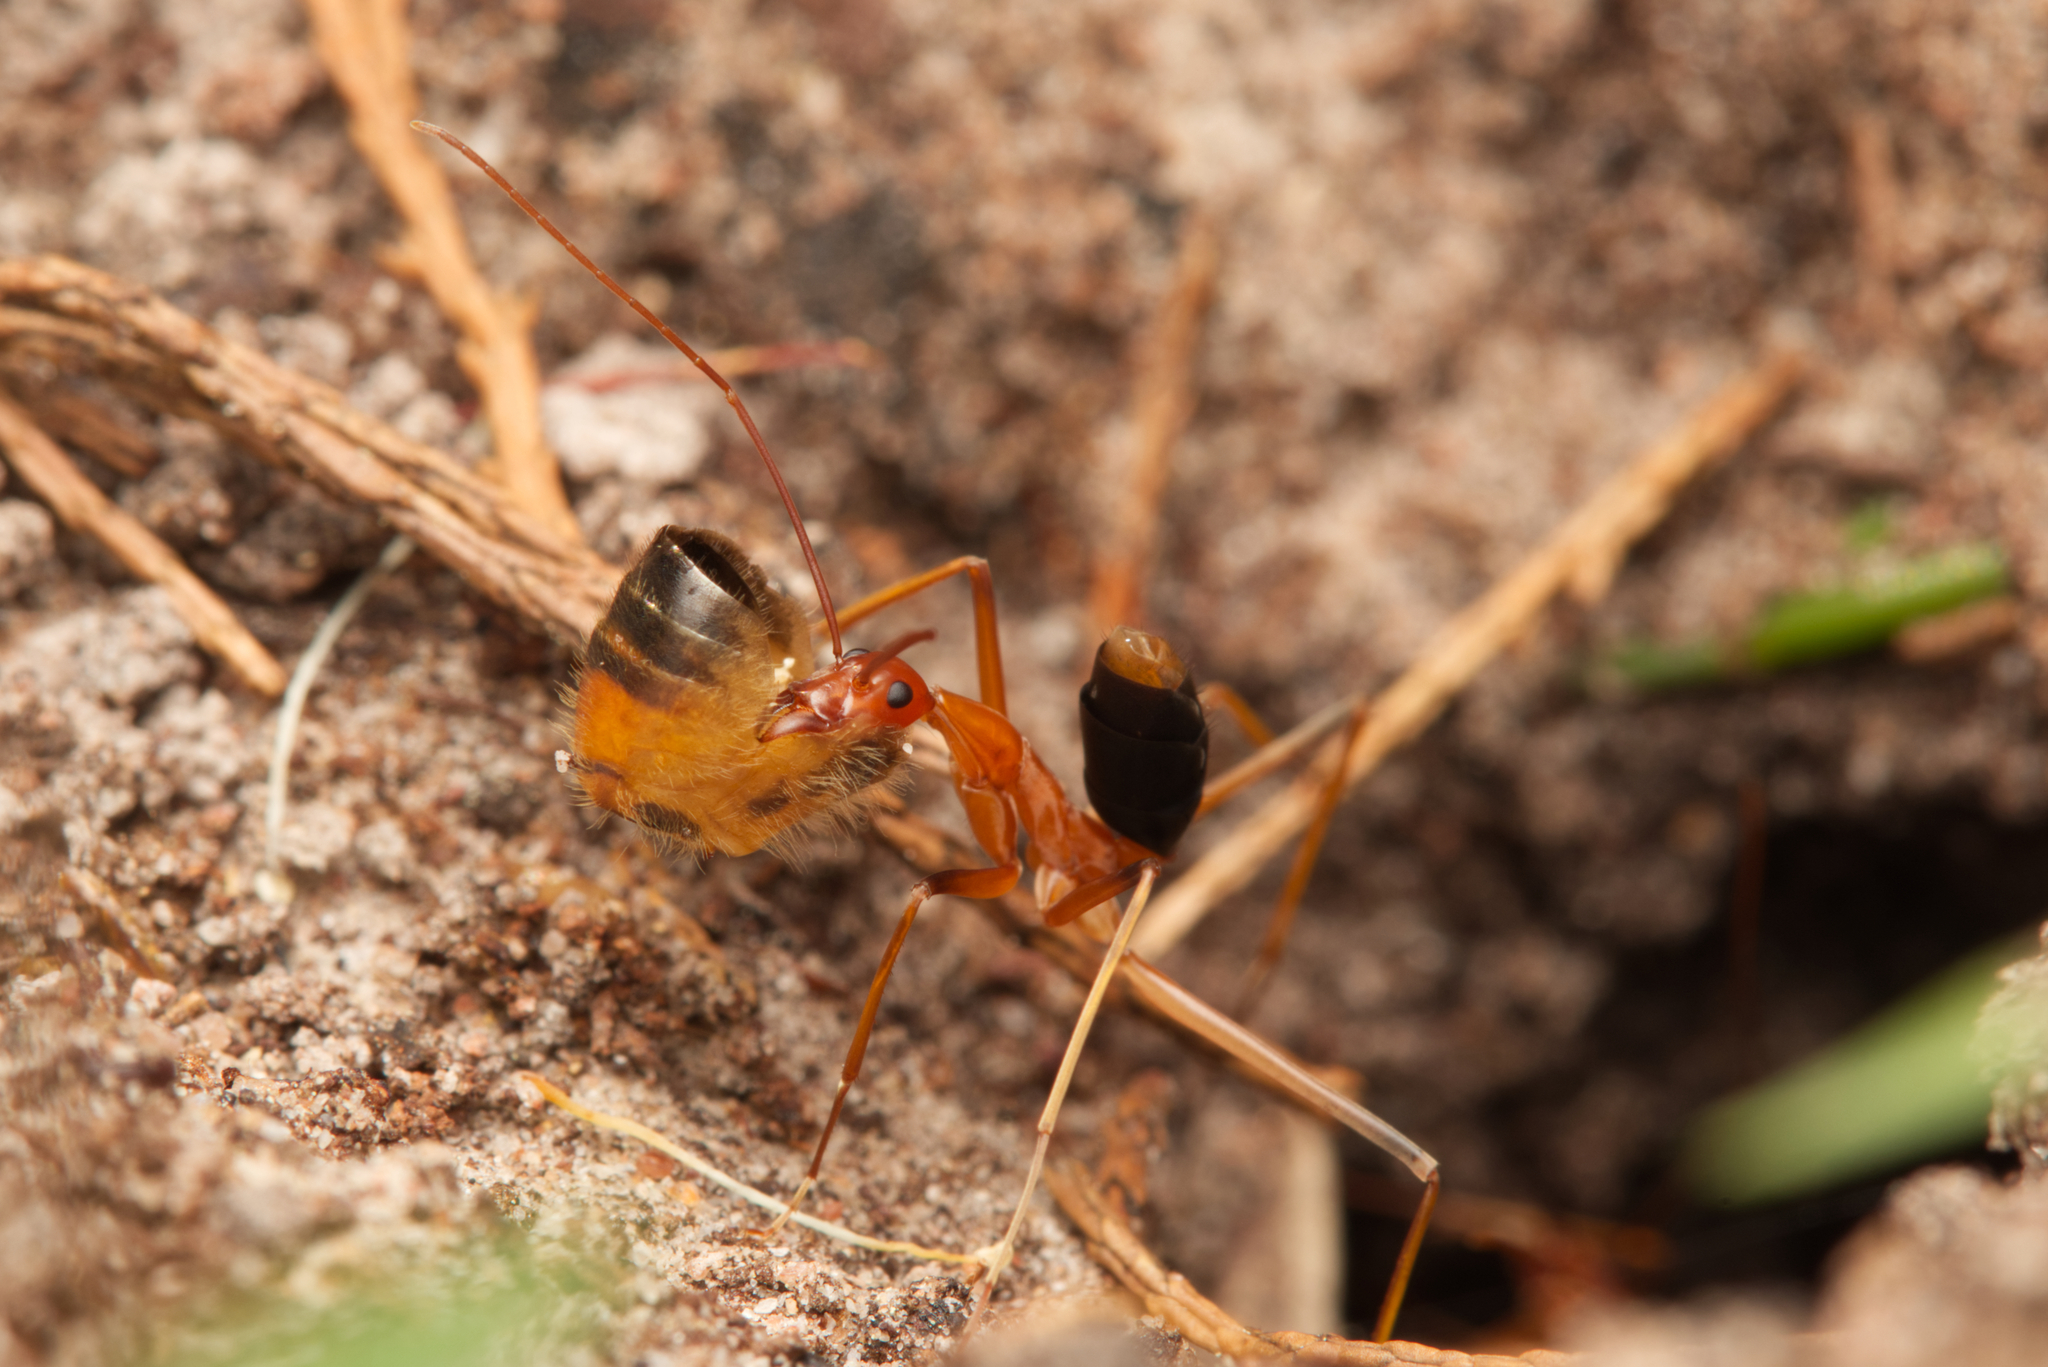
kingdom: Animalia
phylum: Arthropoda
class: Insecta
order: Hymenoptera
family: Formicidae
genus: Leptomyrmex
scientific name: Leptomyrmex rufipes
